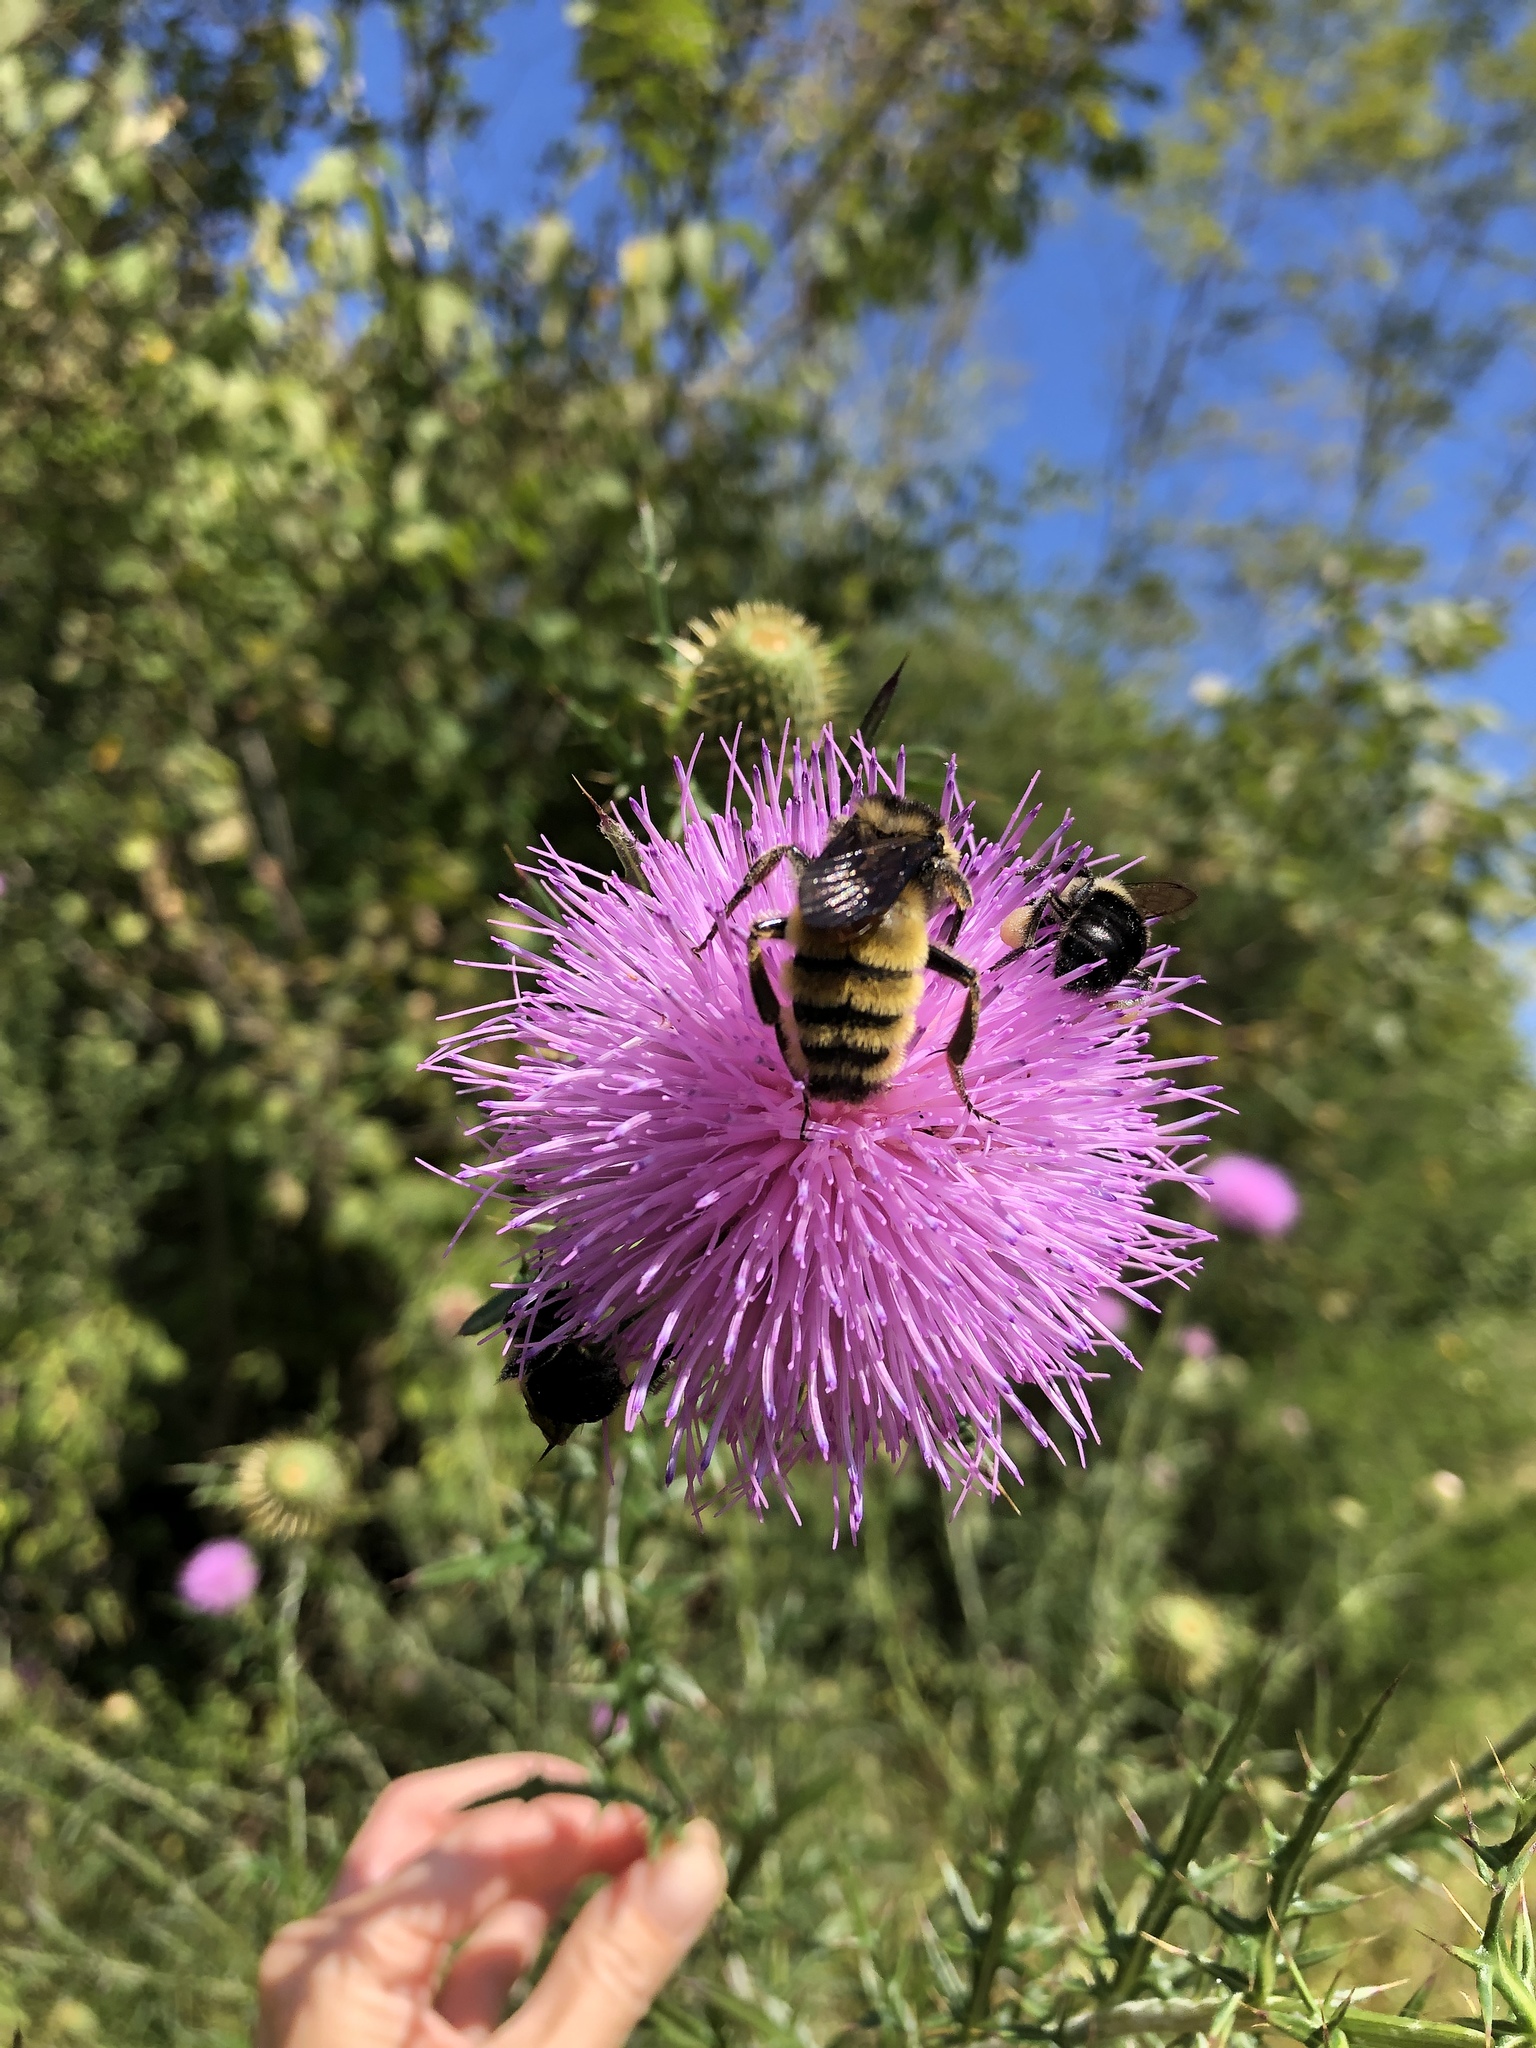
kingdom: Animalia
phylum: Arthropoda
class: Insecta
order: Hymenoptera
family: Apidae
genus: Bombus
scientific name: Bombus pensylvanicus
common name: Bumble bee
